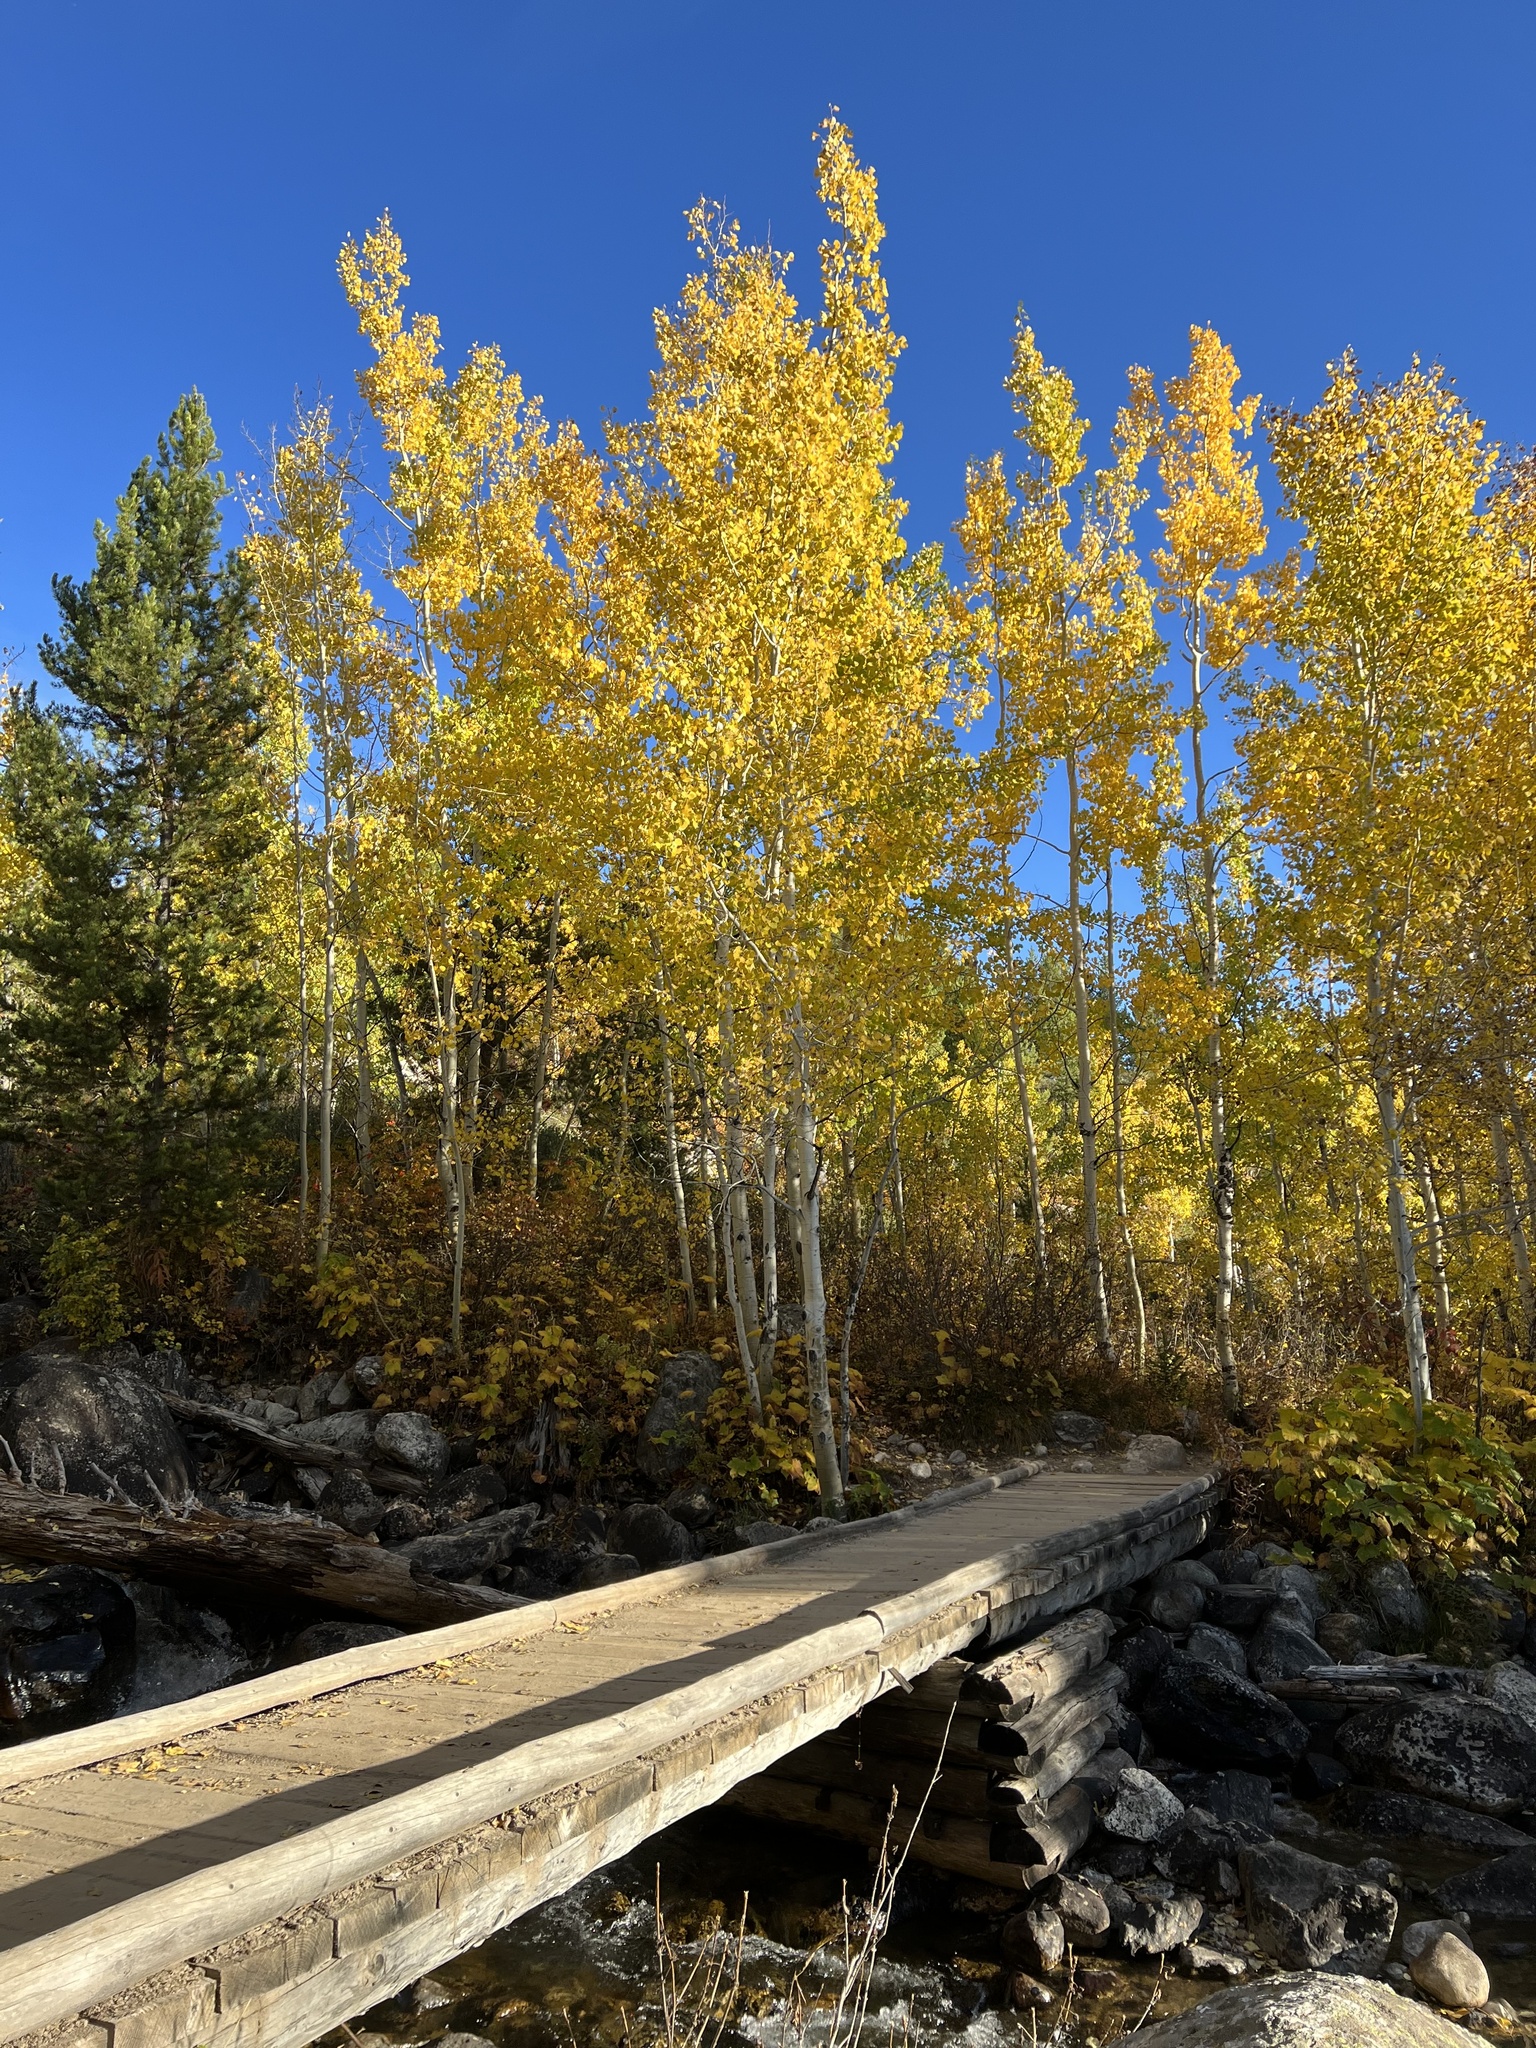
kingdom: Plantae
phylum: Tracheophyta
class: Magnoliopsida
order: Malpighiales
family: Salicaceae
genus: Populus
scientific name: Populus tremuloides
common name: Quaking aspen
